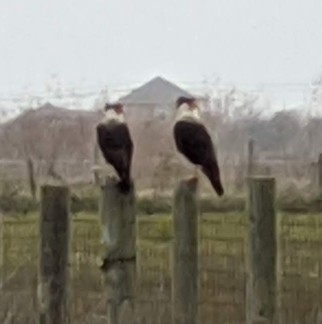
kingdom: Animalia
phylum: Chordata
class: Aves
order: Falconiformes
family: Falconidae
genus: Caracara
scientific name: Caracara plancus
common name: Southern caracara
